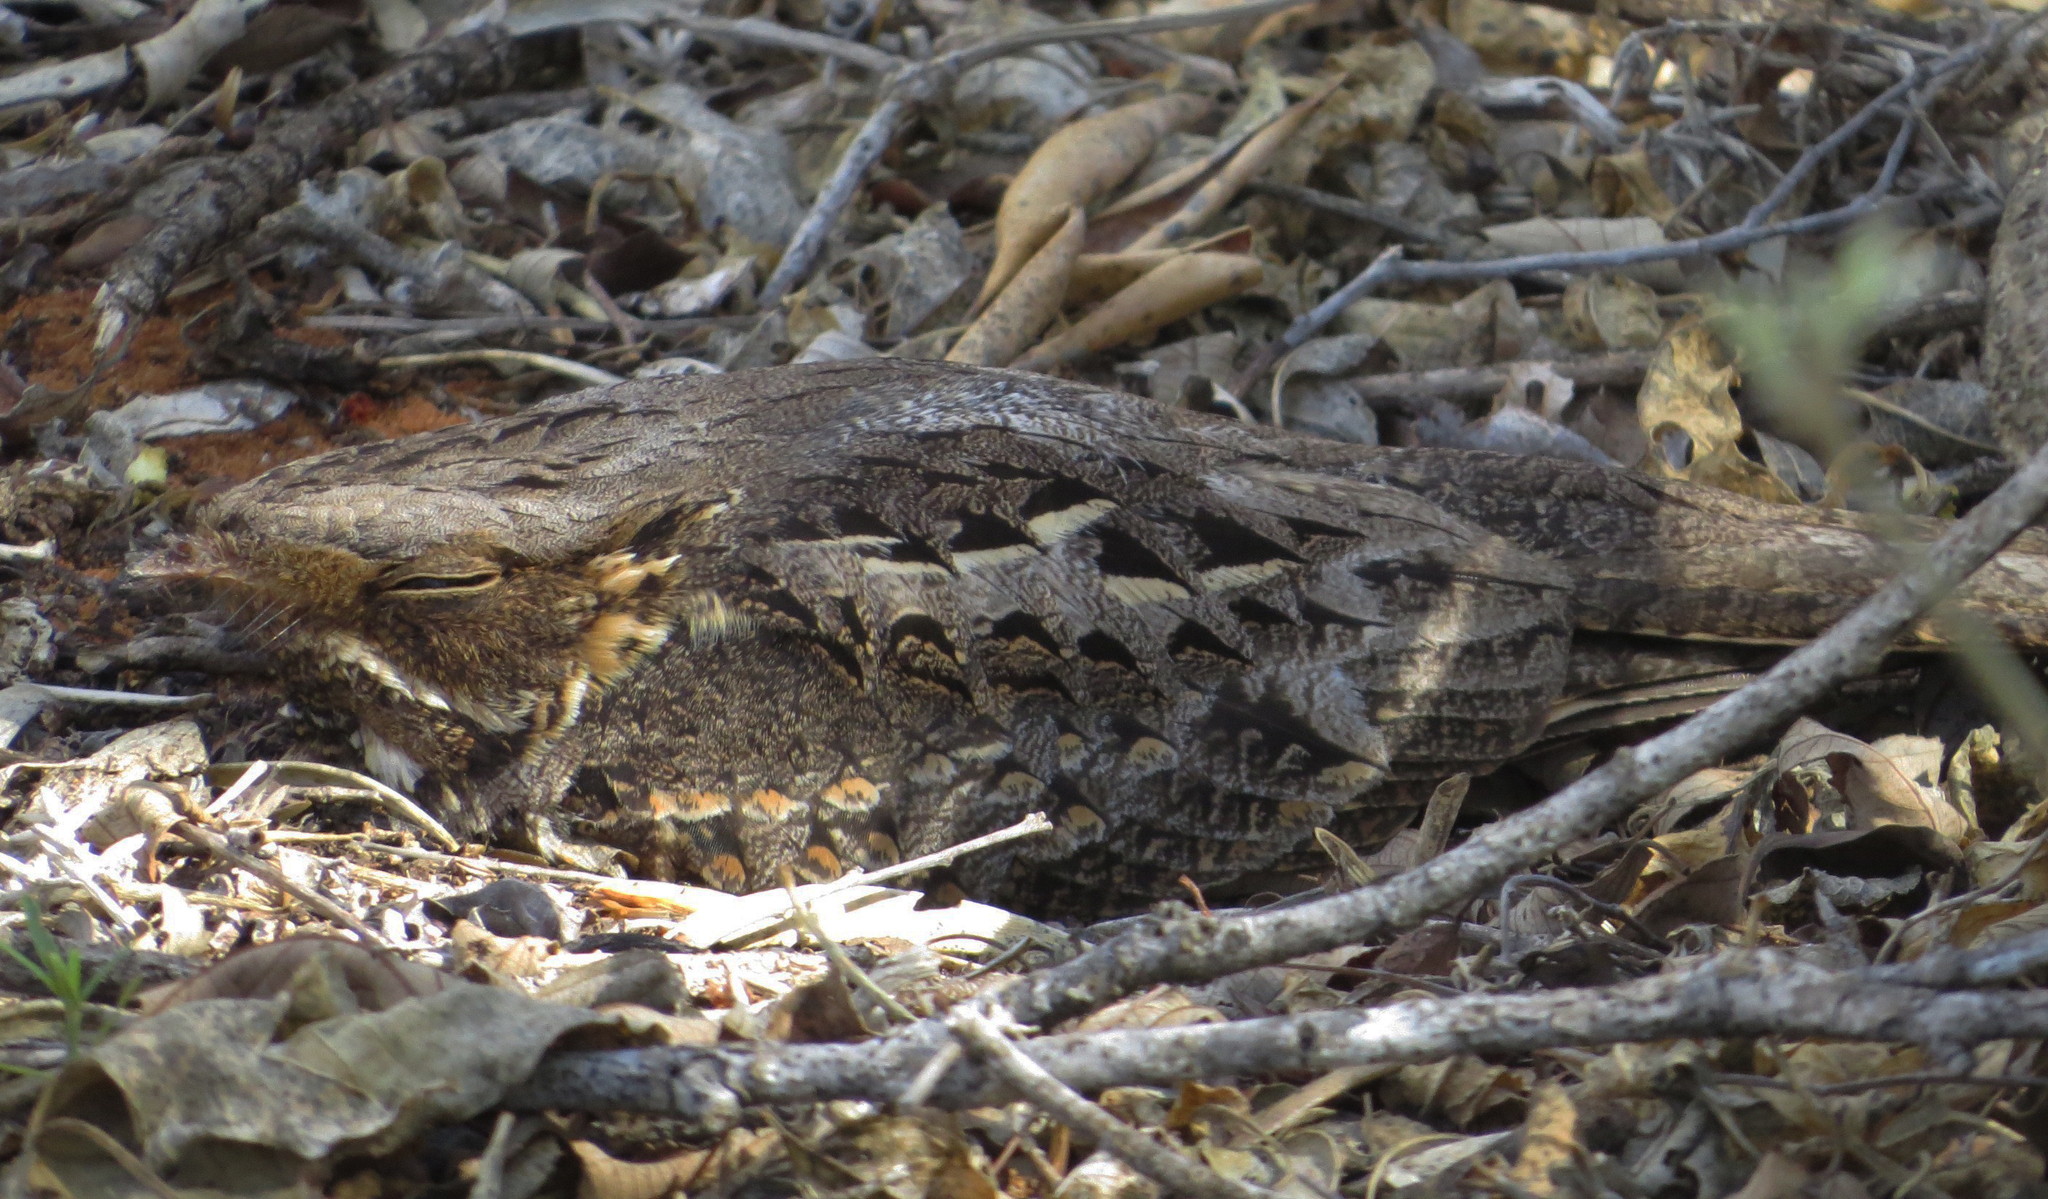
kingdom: Animalia
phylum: Chordata
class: Aves
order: Caprimulgiformes
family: Caprimulgidae
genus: Caprimulgus
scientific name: Caprimulgus madagascariensis
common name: Madagascar nightjar
